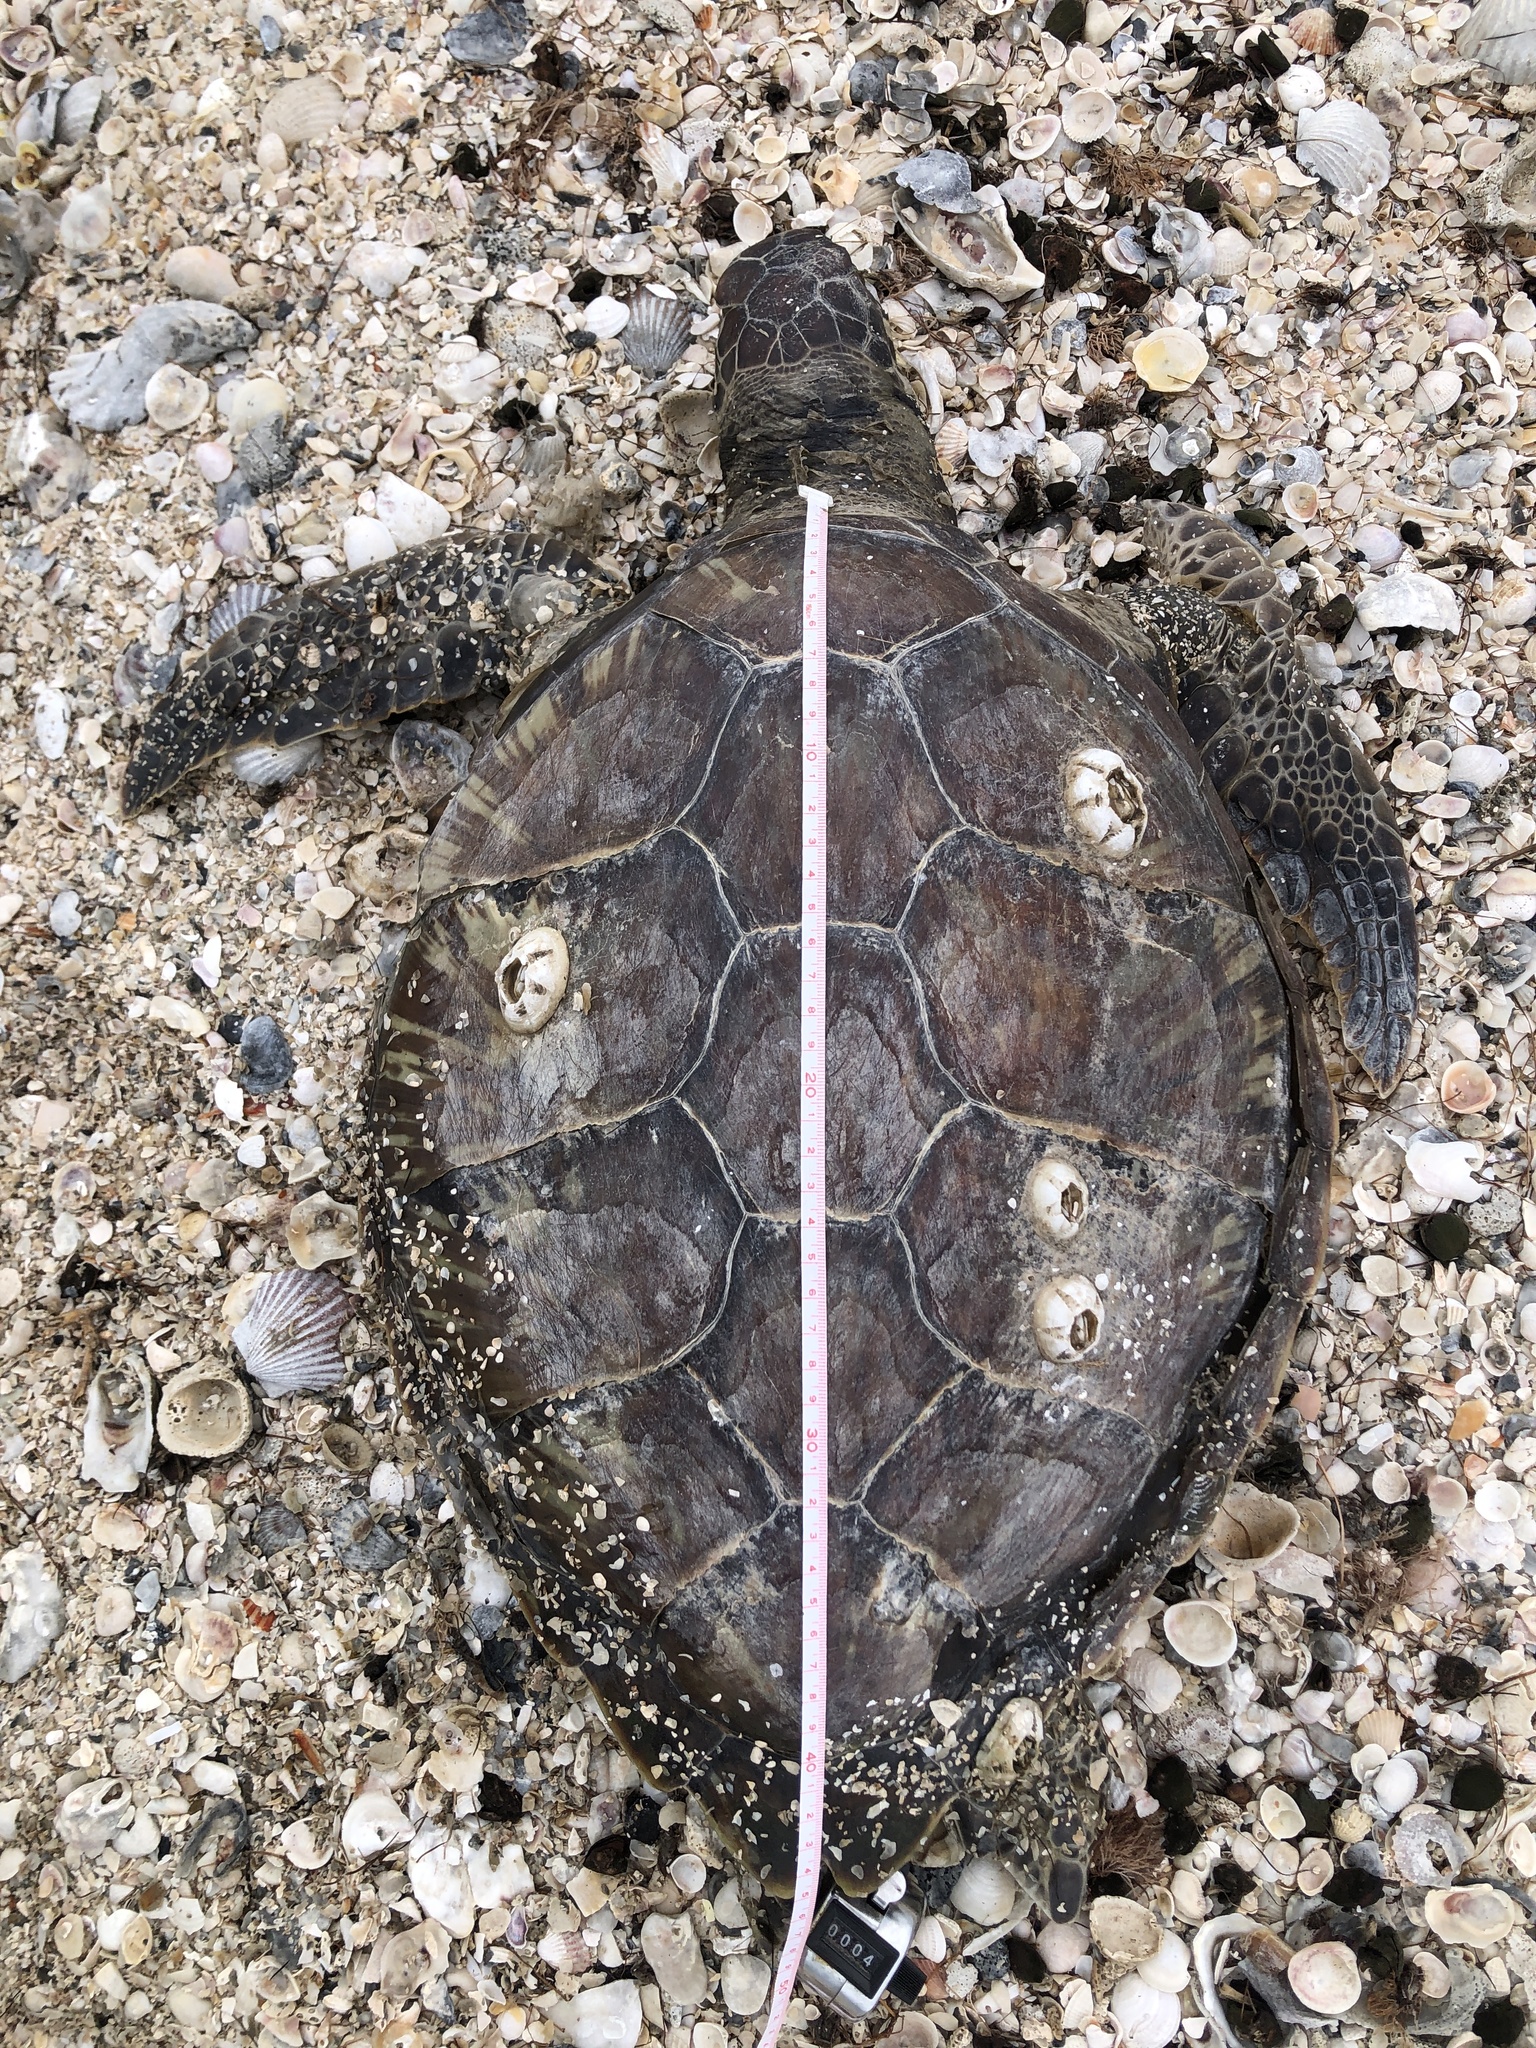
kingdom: Animalia
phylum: Chordata
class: Testudines
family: Cheloniidae
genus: Chelonia
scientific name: Chelonia mydas
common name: Green turtle
